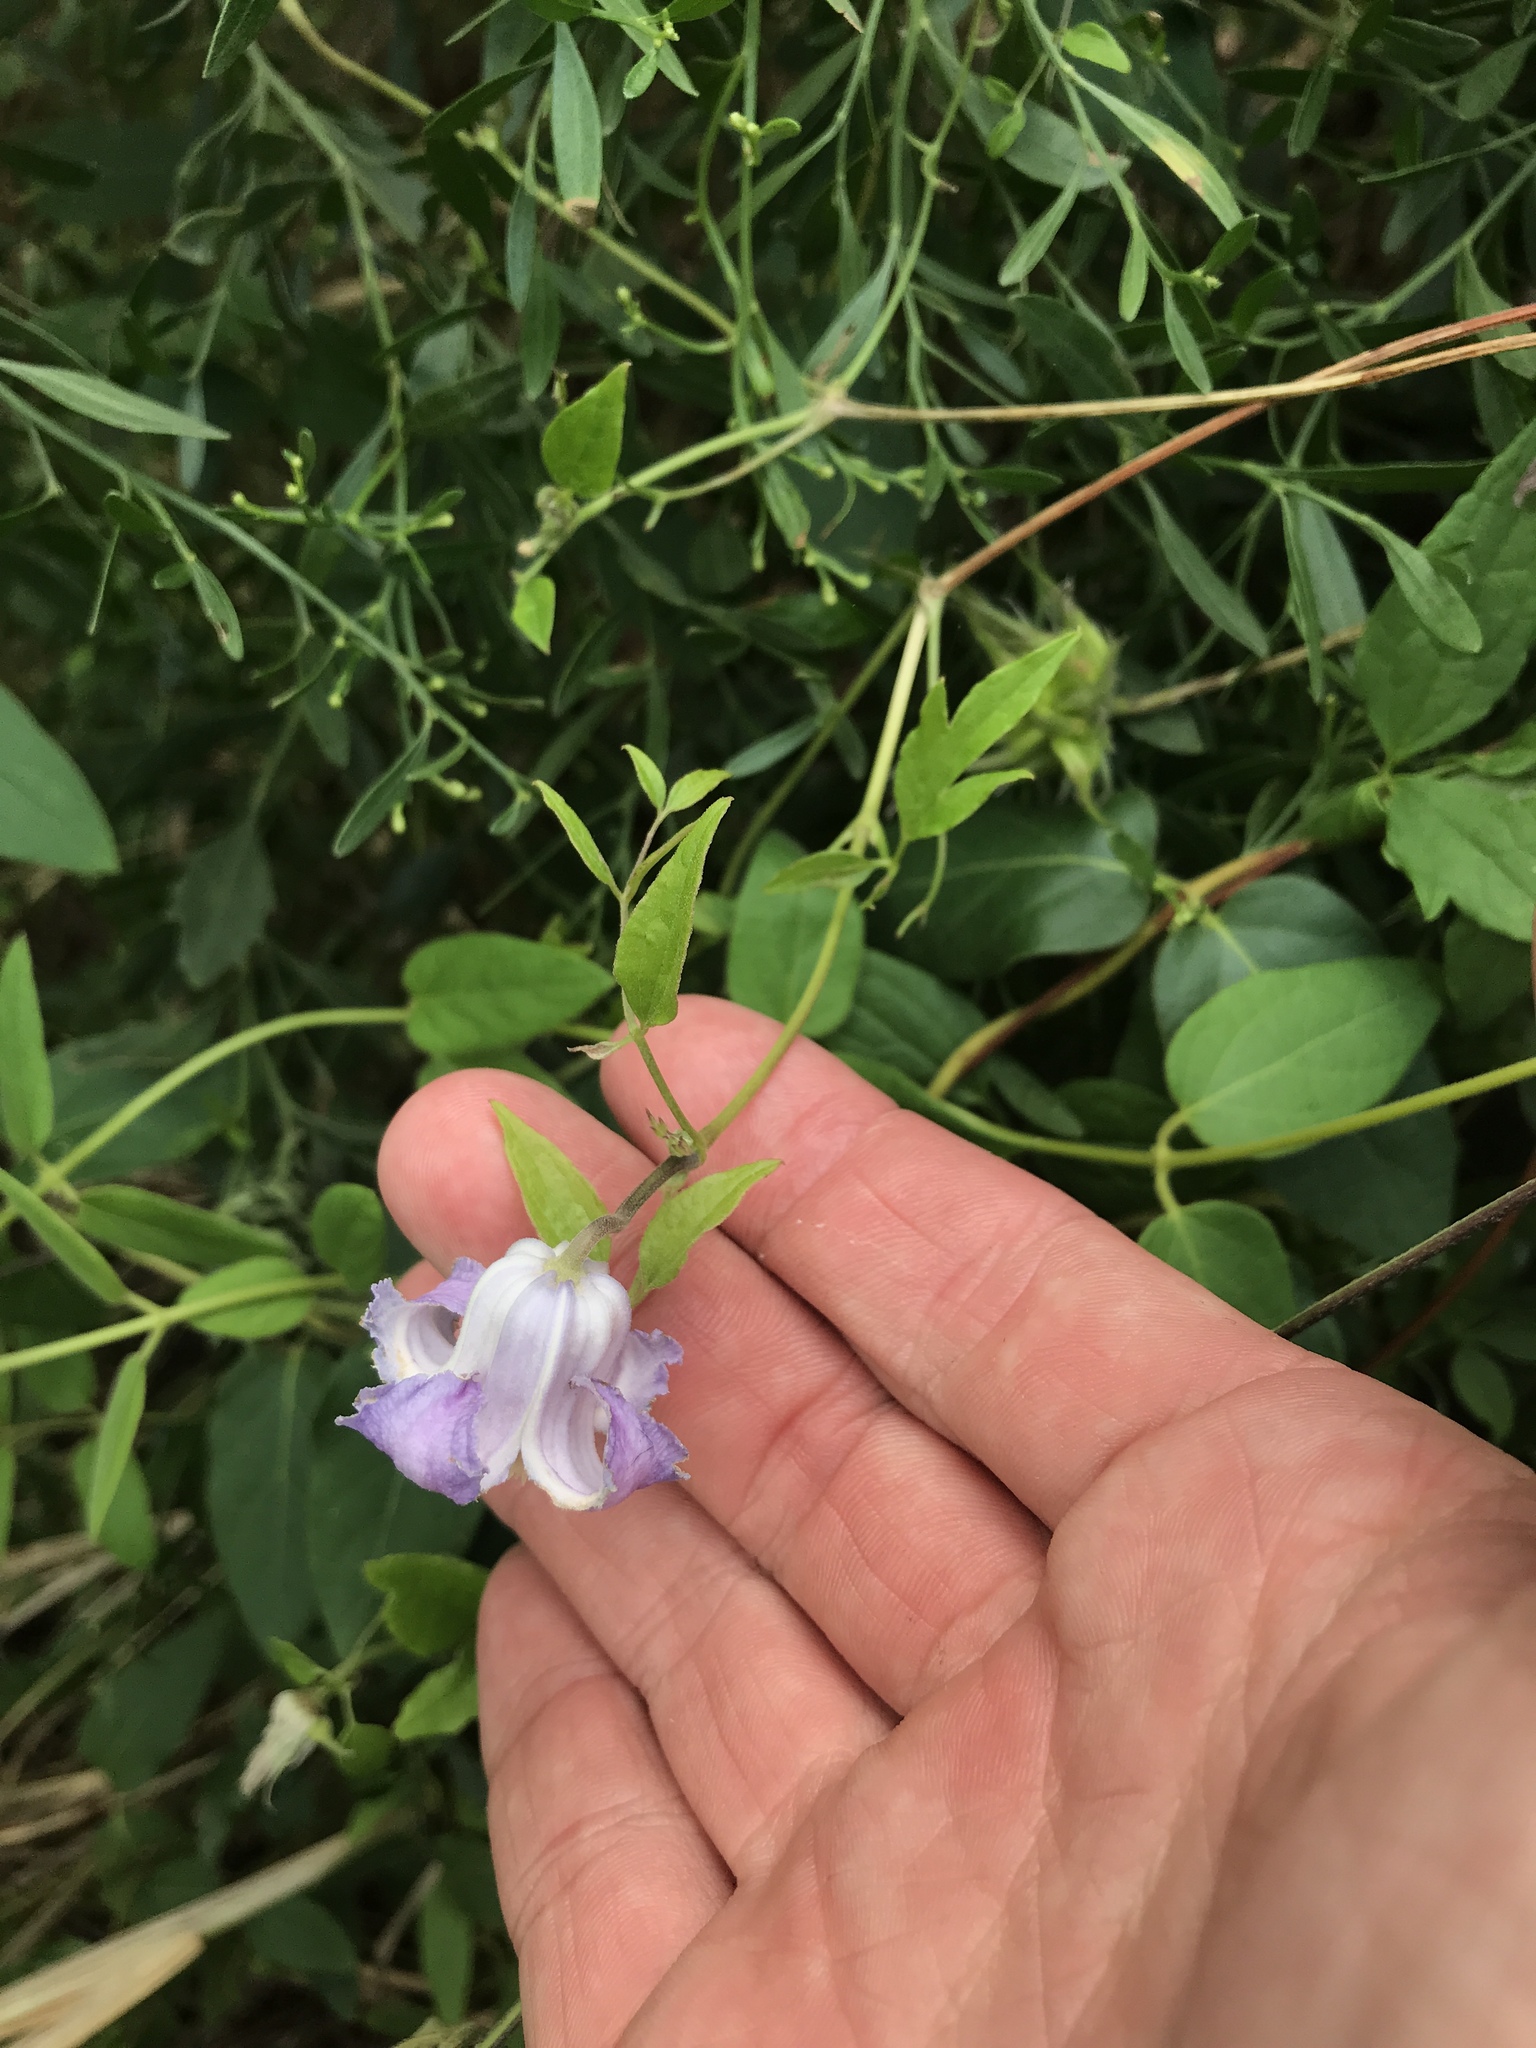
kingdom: Plantae
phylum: Tracheophyta
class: Magnoliopsida
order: Ranunculales
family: Ranunculaceae
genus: Clematis
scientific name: Clematis crispa
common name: Curly clematis
